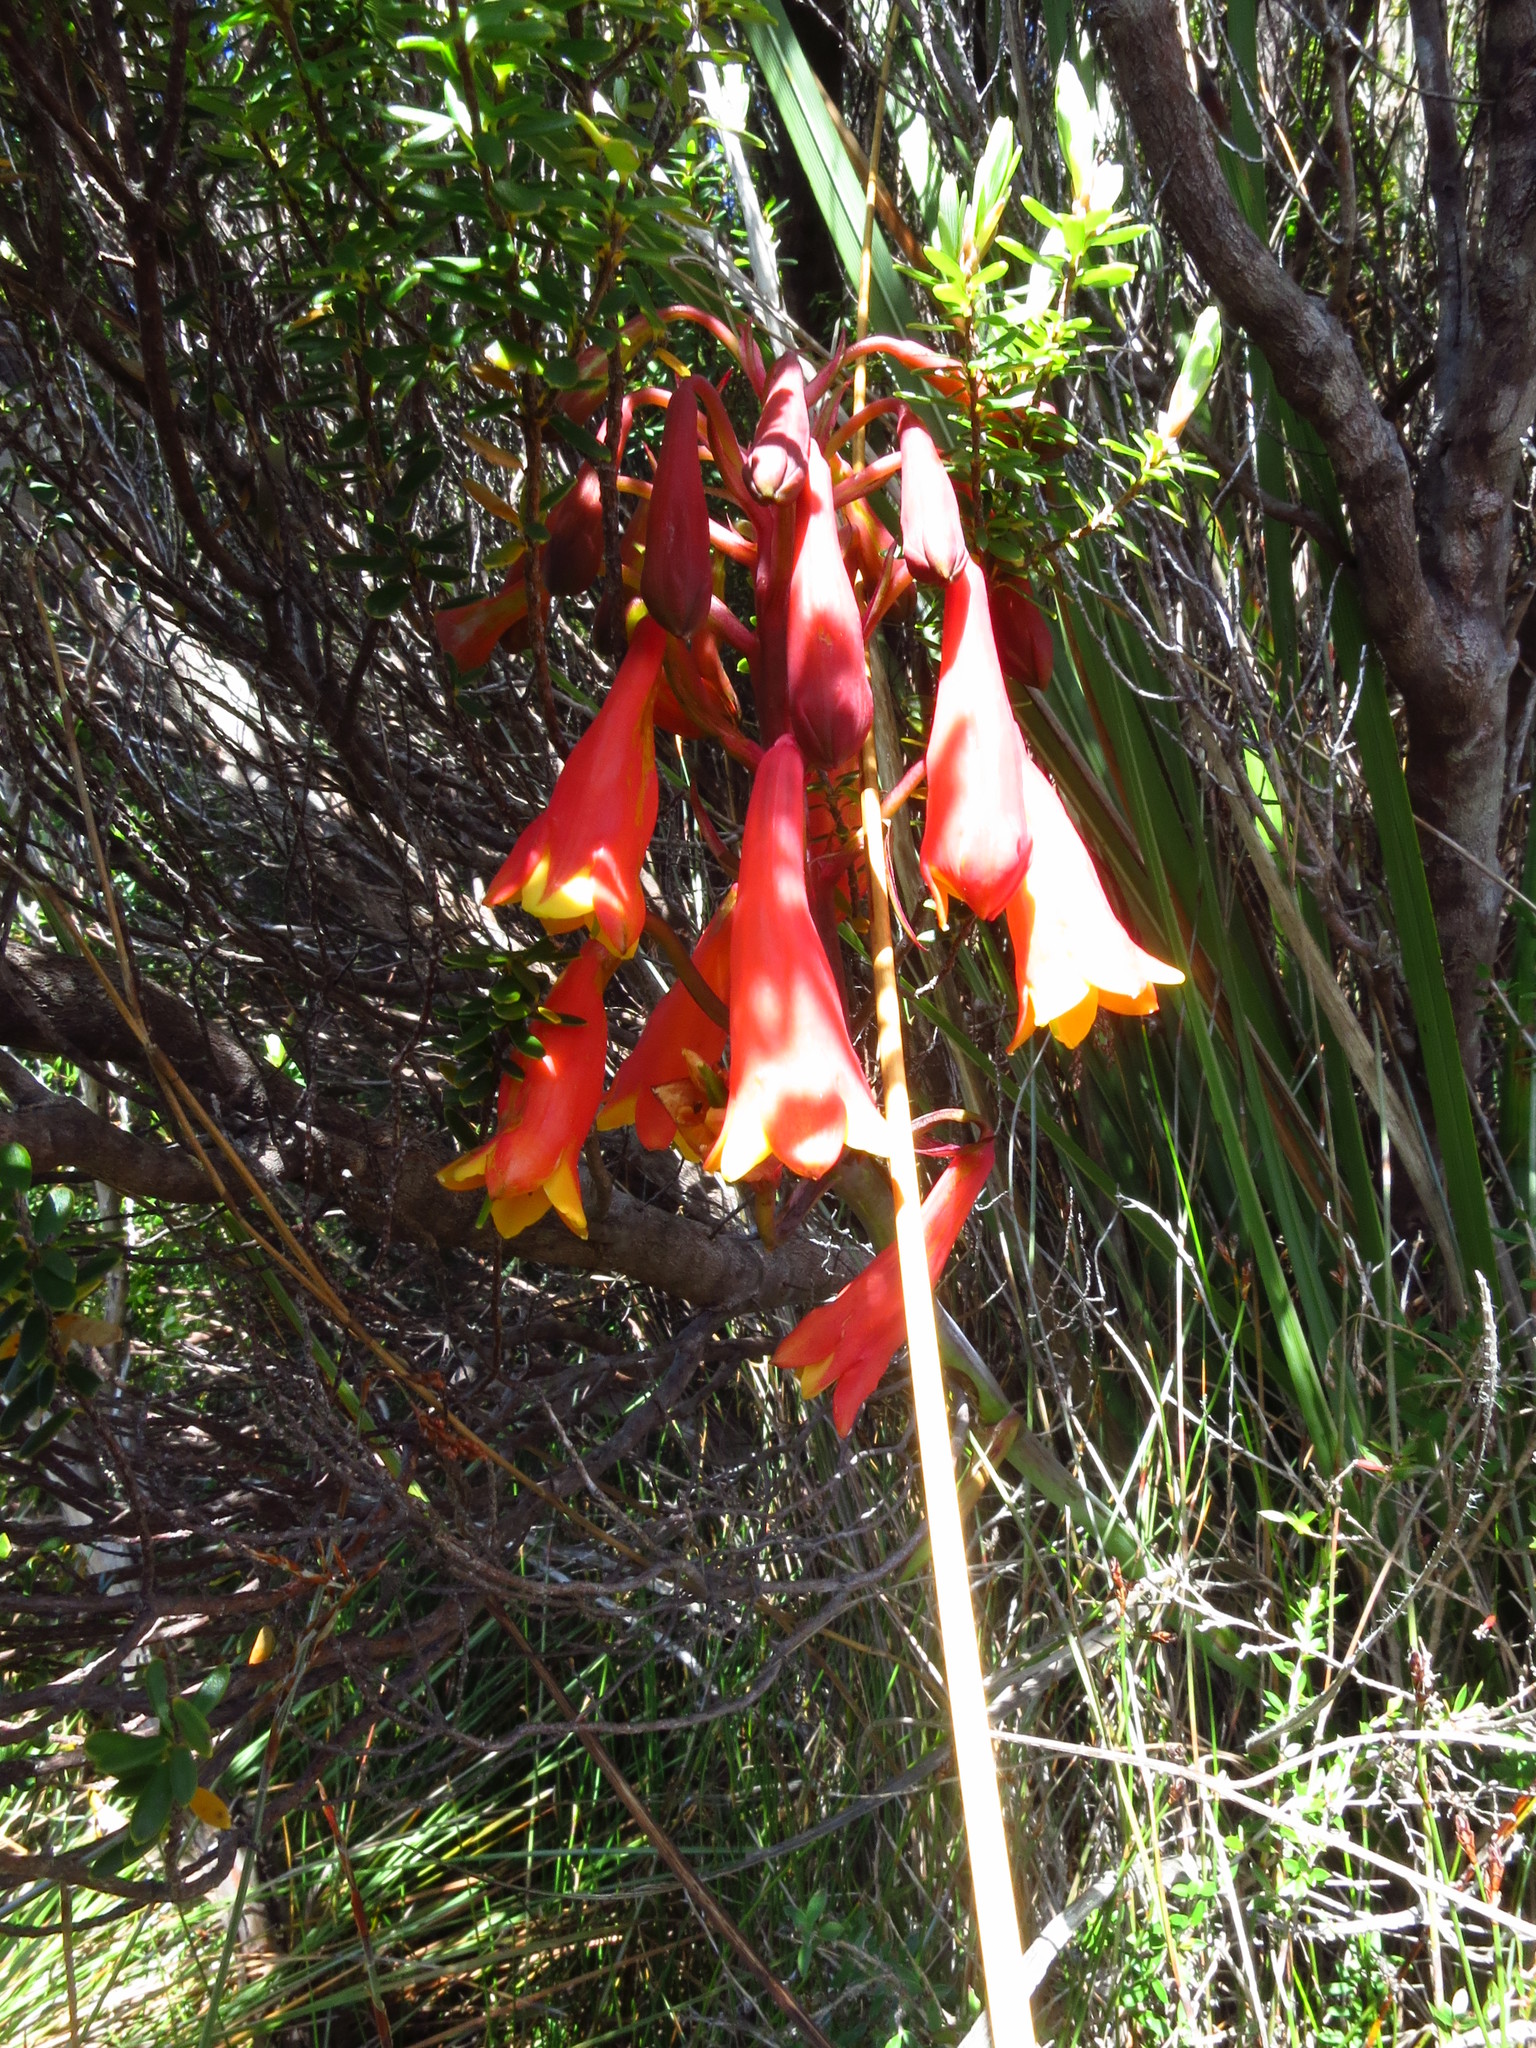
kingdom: Plantae
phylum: Tracheophyta
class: Liliopsida
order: Asparagales
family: Blandfordiaceae
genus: Blandfordia
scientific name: Blandfordia punicea
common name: Tasmanian christmas-bell
